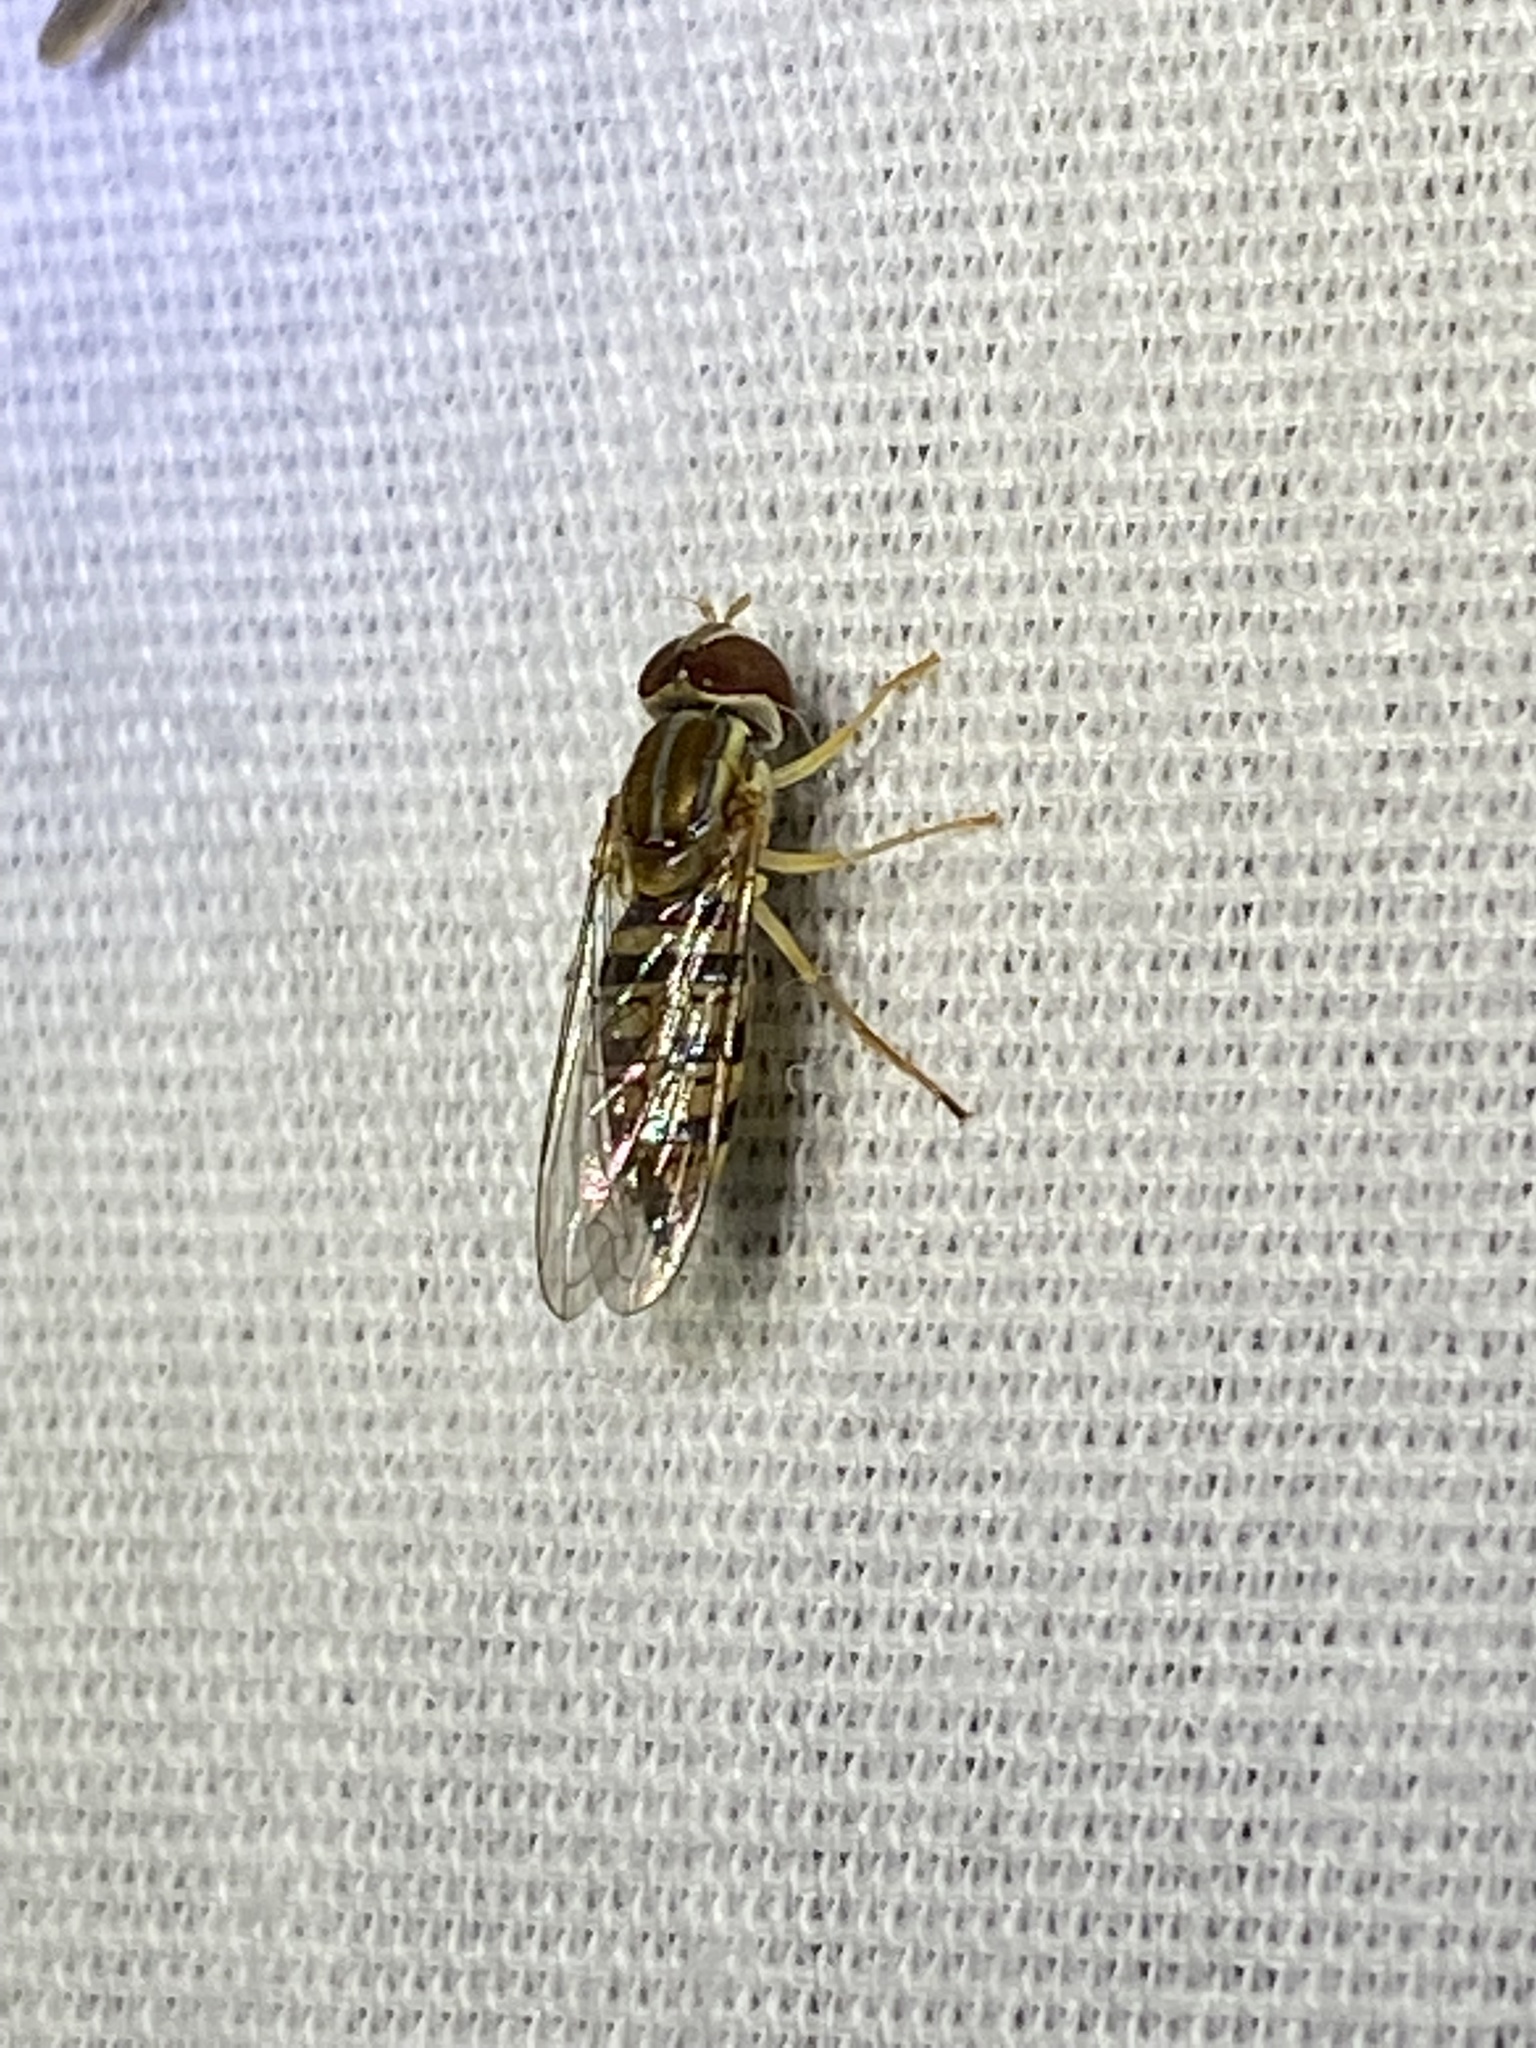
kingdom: Animalia
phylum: Arthropoda
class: Insecta
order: Diptera
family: Syrphidae
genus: Toxomerus
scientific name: Toxomerus politus
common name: Maize calligrapher
